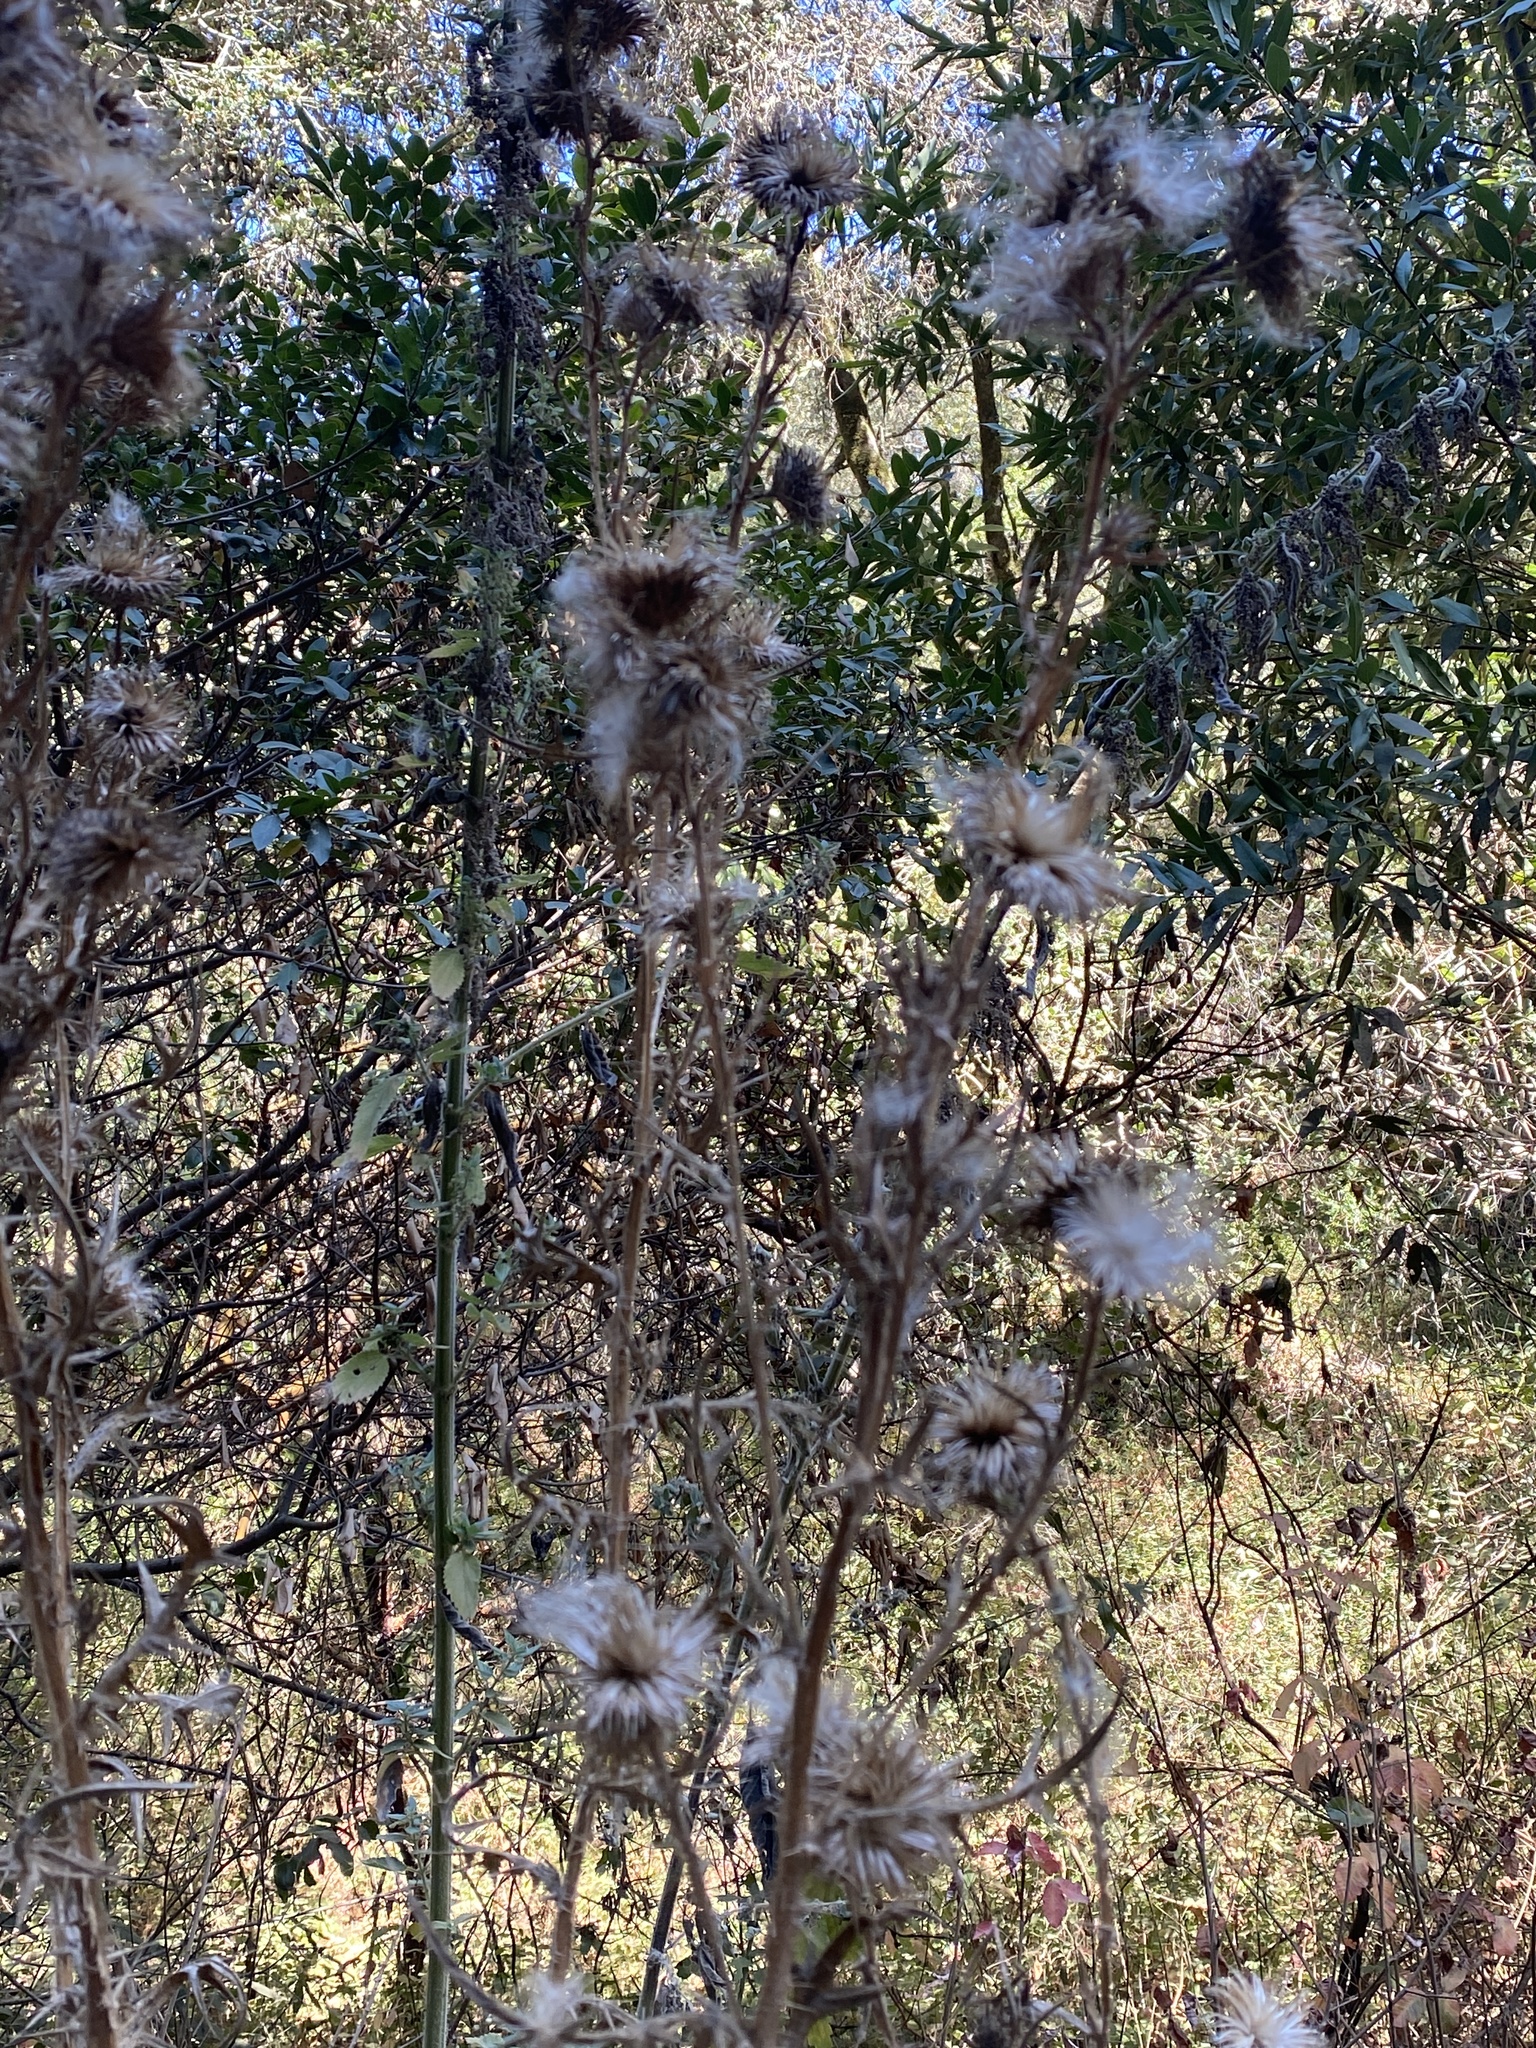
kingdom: Plantae
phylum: Tracheophyta
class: Magnoliopsida
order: Asterales
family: Asteraceae
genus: Cirsium
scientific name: Cirsium vulgare
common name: Bull thistle
